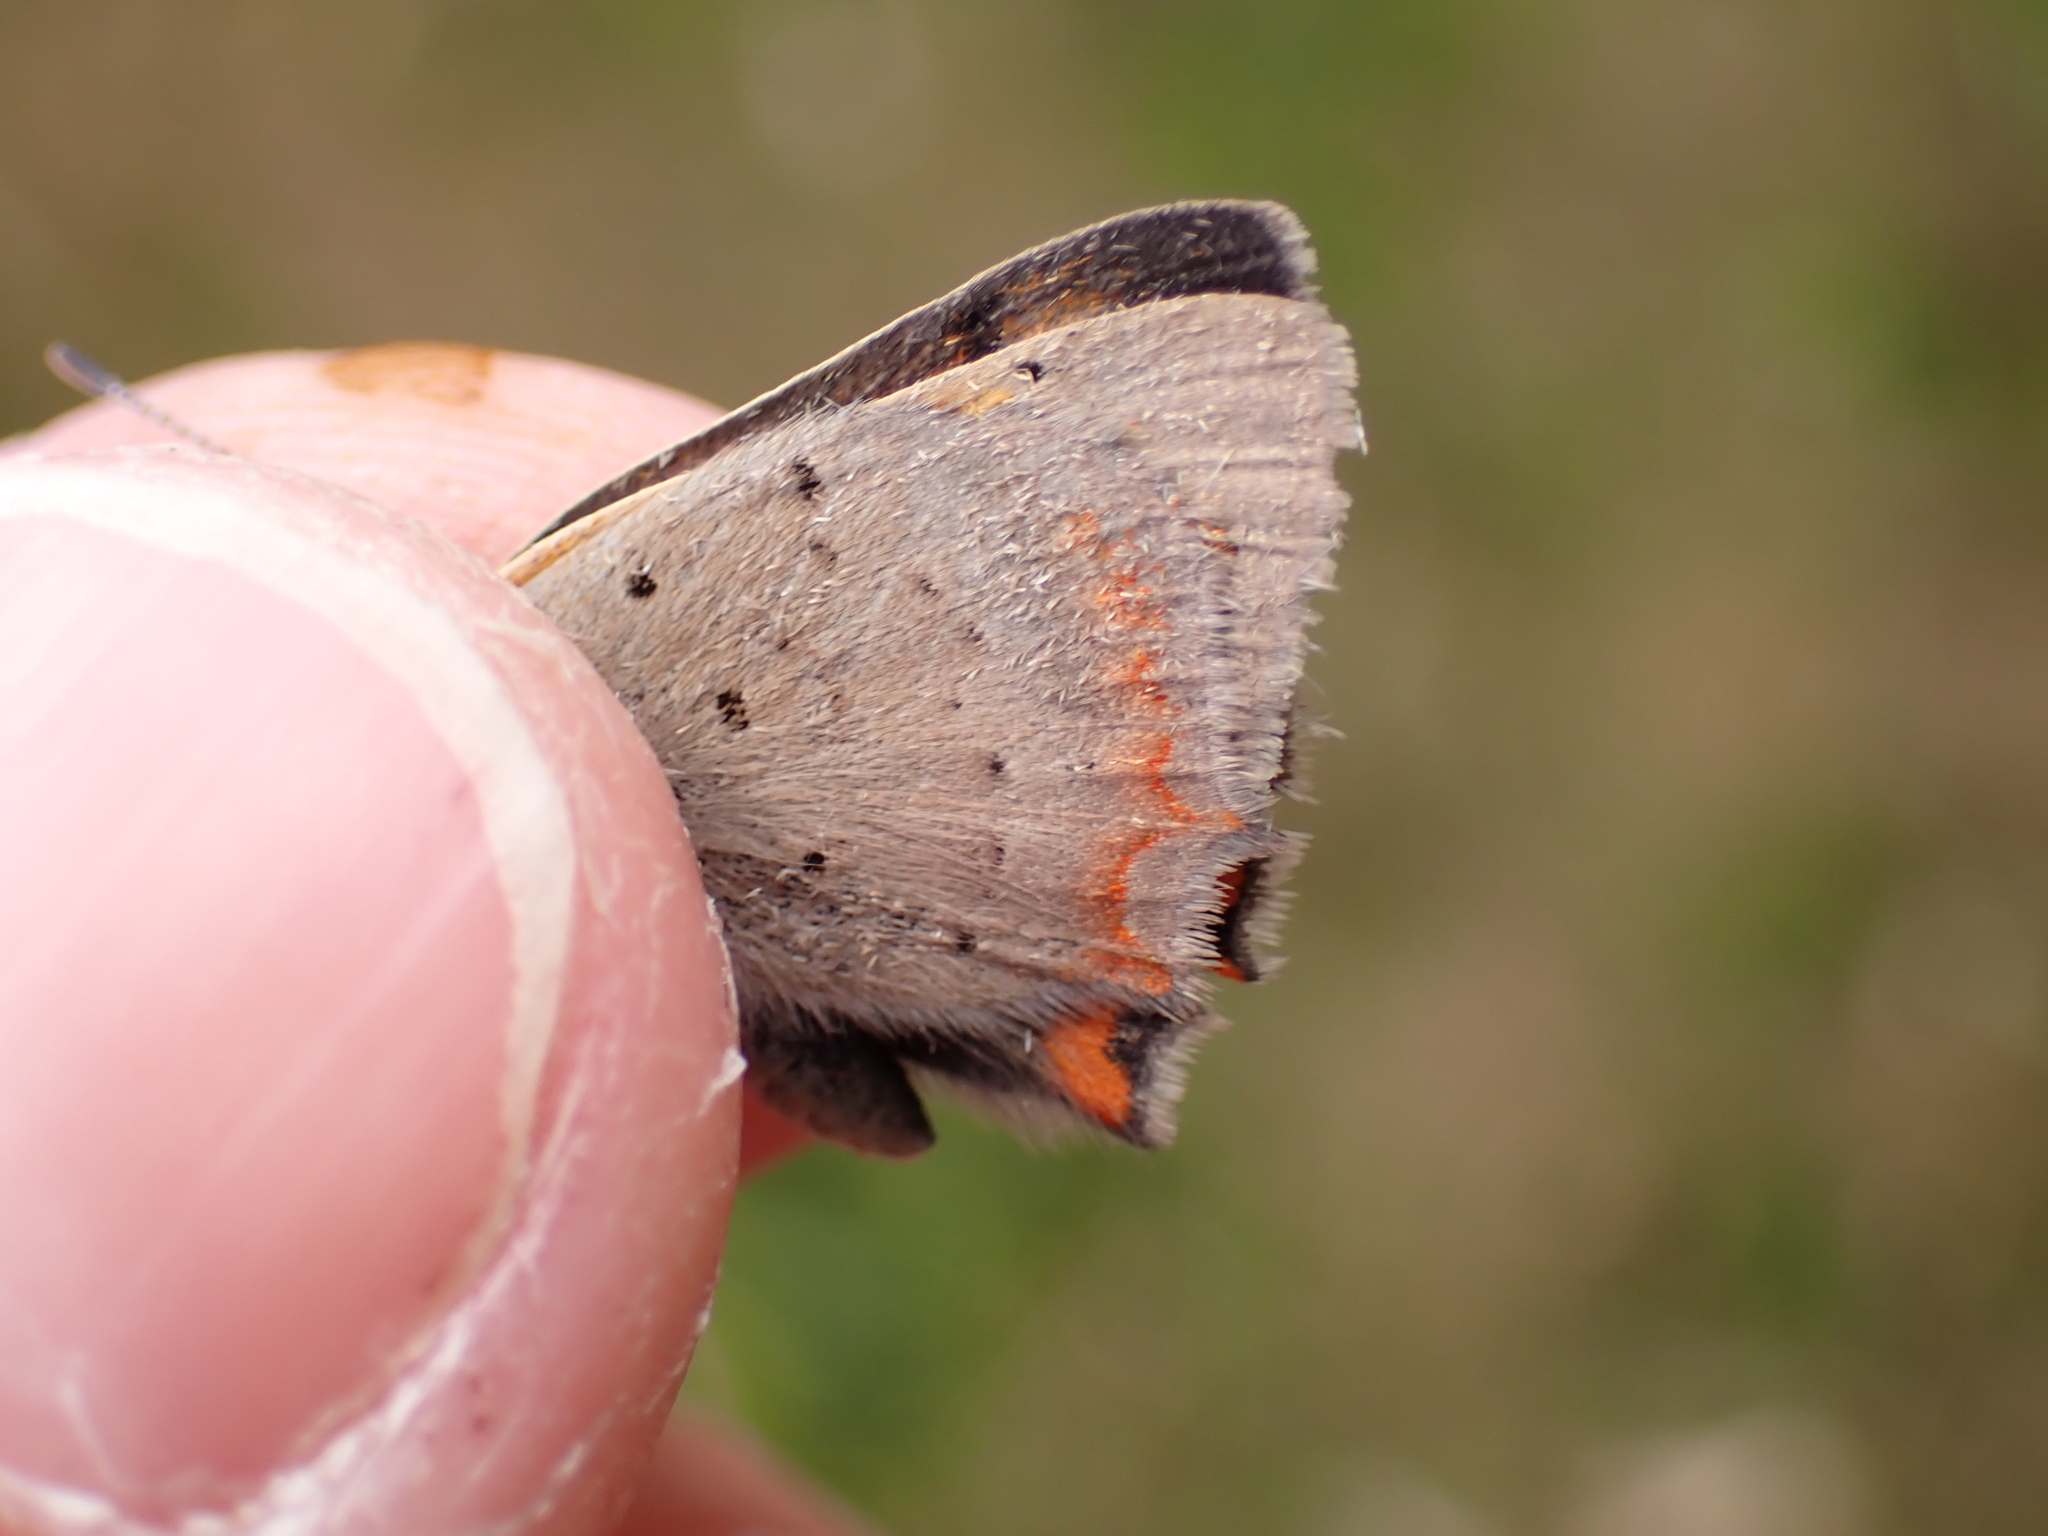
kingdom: Animalia
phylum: Arthropoda
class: Insecta
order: Lepidoptera
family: Lycaenidae
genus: Lycaena
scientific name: Lycaena phlaeas
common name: Small copper
